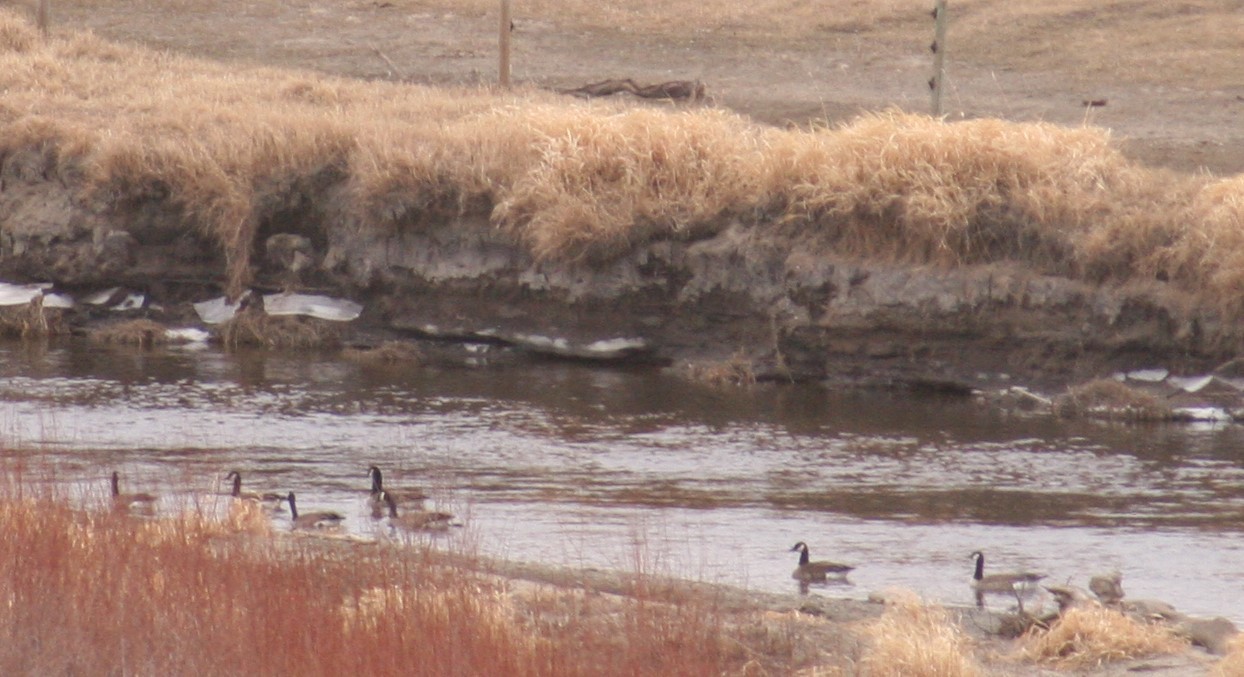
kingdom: Animalia
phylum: Chordata
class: Aves
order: Anseriformes
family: Anatidae
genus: Branta
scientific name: Branta canadensis
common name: Canada goose
